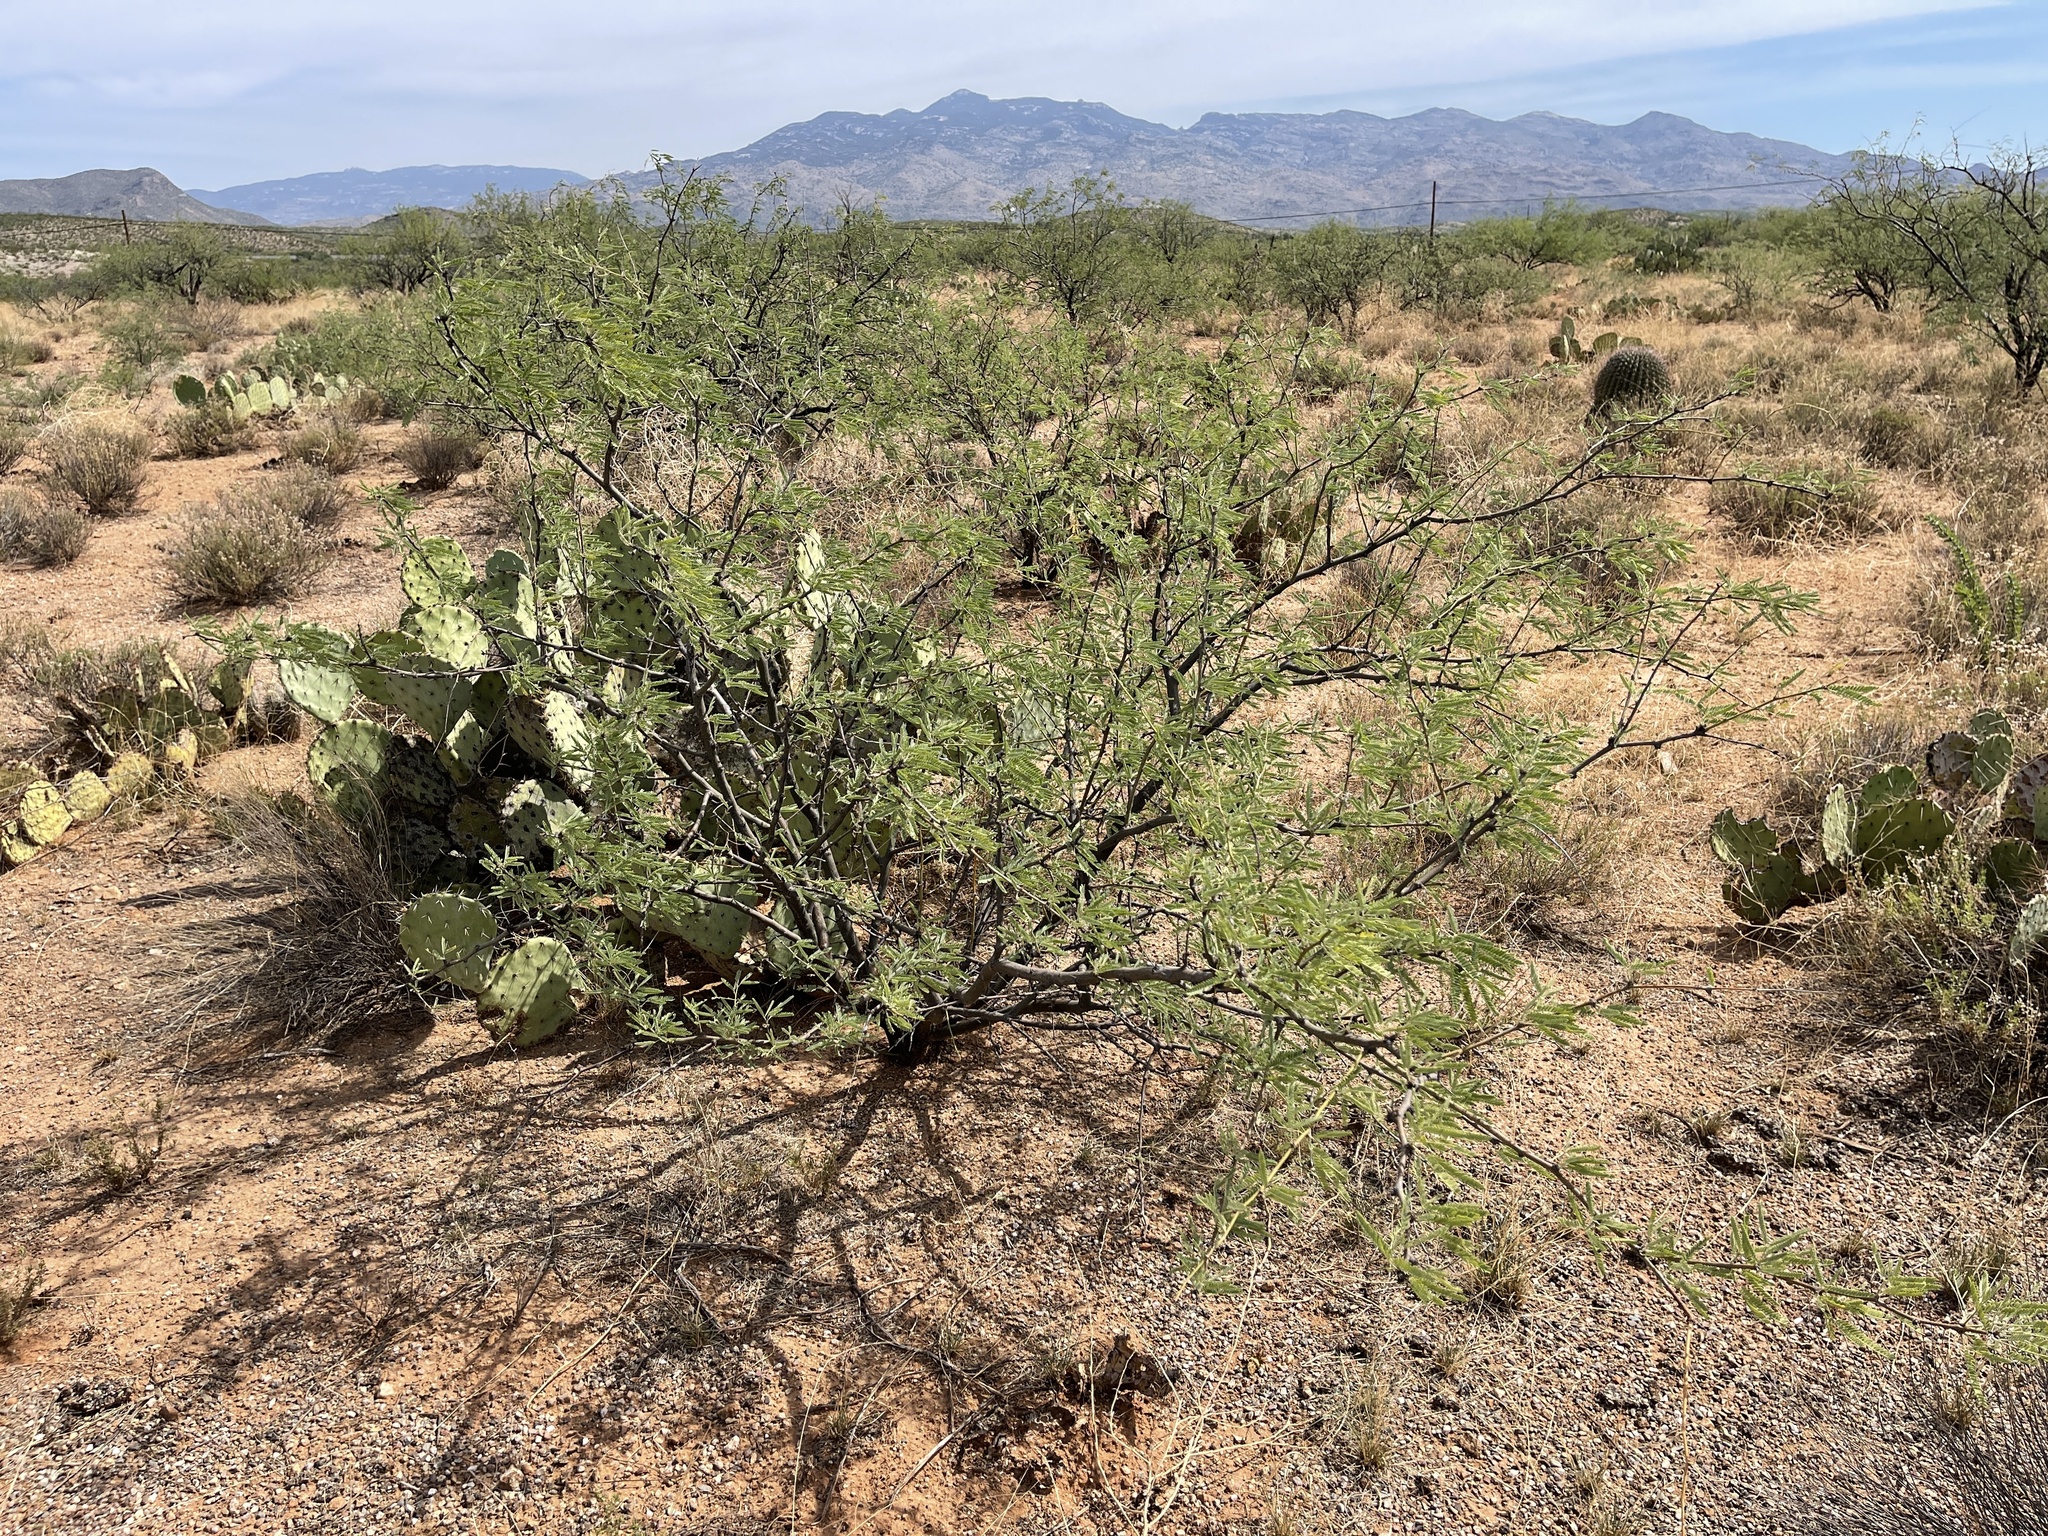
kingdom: Plantae
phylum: Tracheophyta
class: Magnoliopsida
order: Fabales
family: Fabaceae
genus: Prosopis
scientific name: Prosopis velutina
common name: Velvet mesquite
